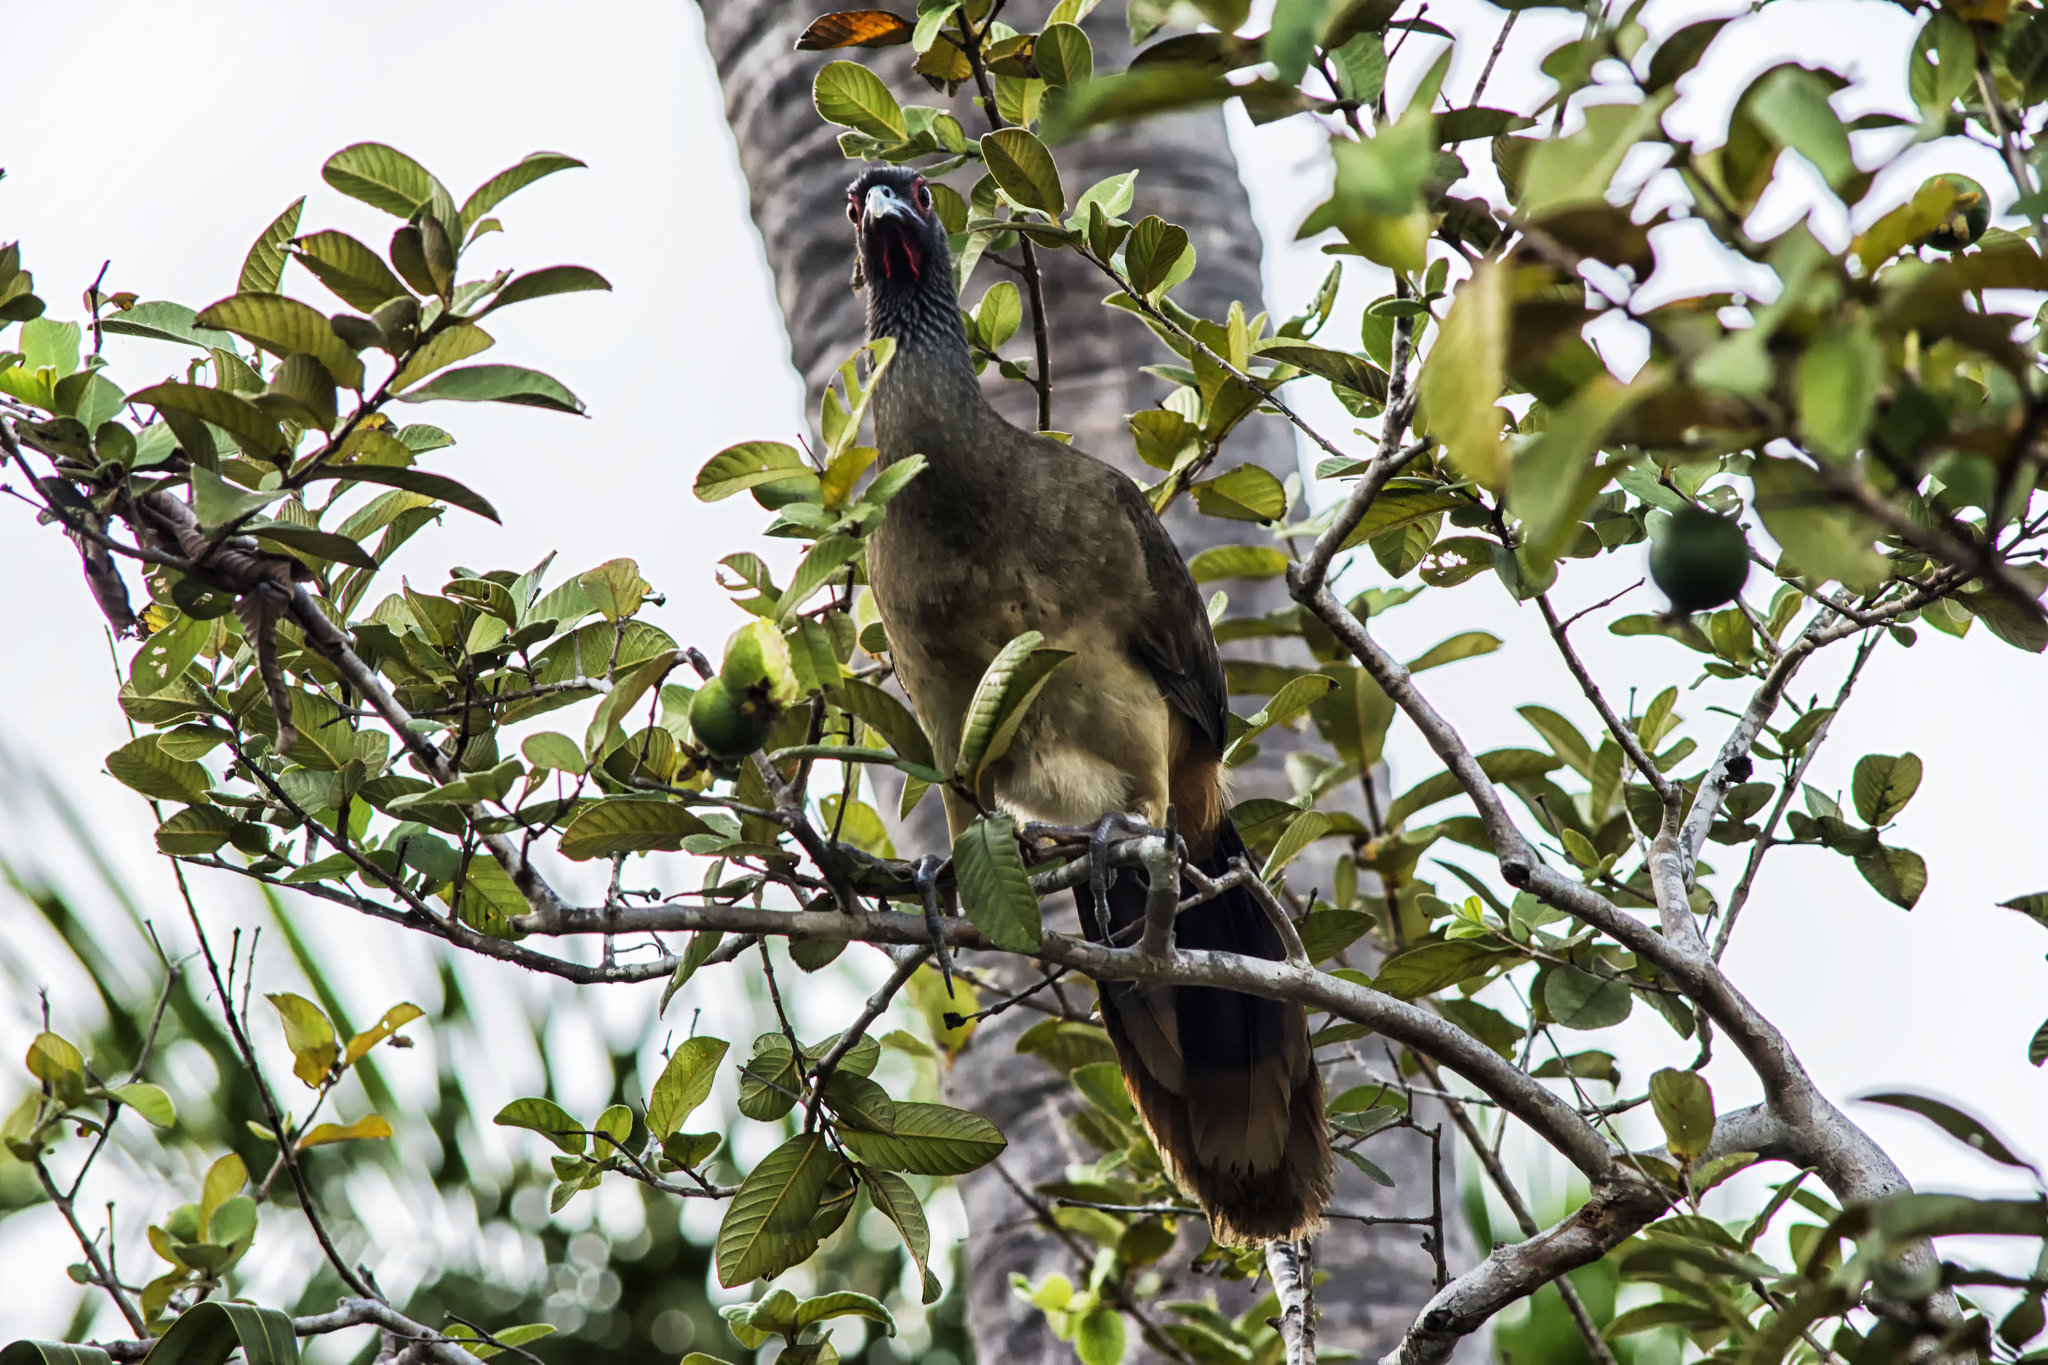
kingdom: Animalia
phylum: Chordata
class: Aves
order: Galliformes
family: Cracidae
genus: Ortalis
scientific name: Ortalis poliocephala
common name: West mexican chachalaca
